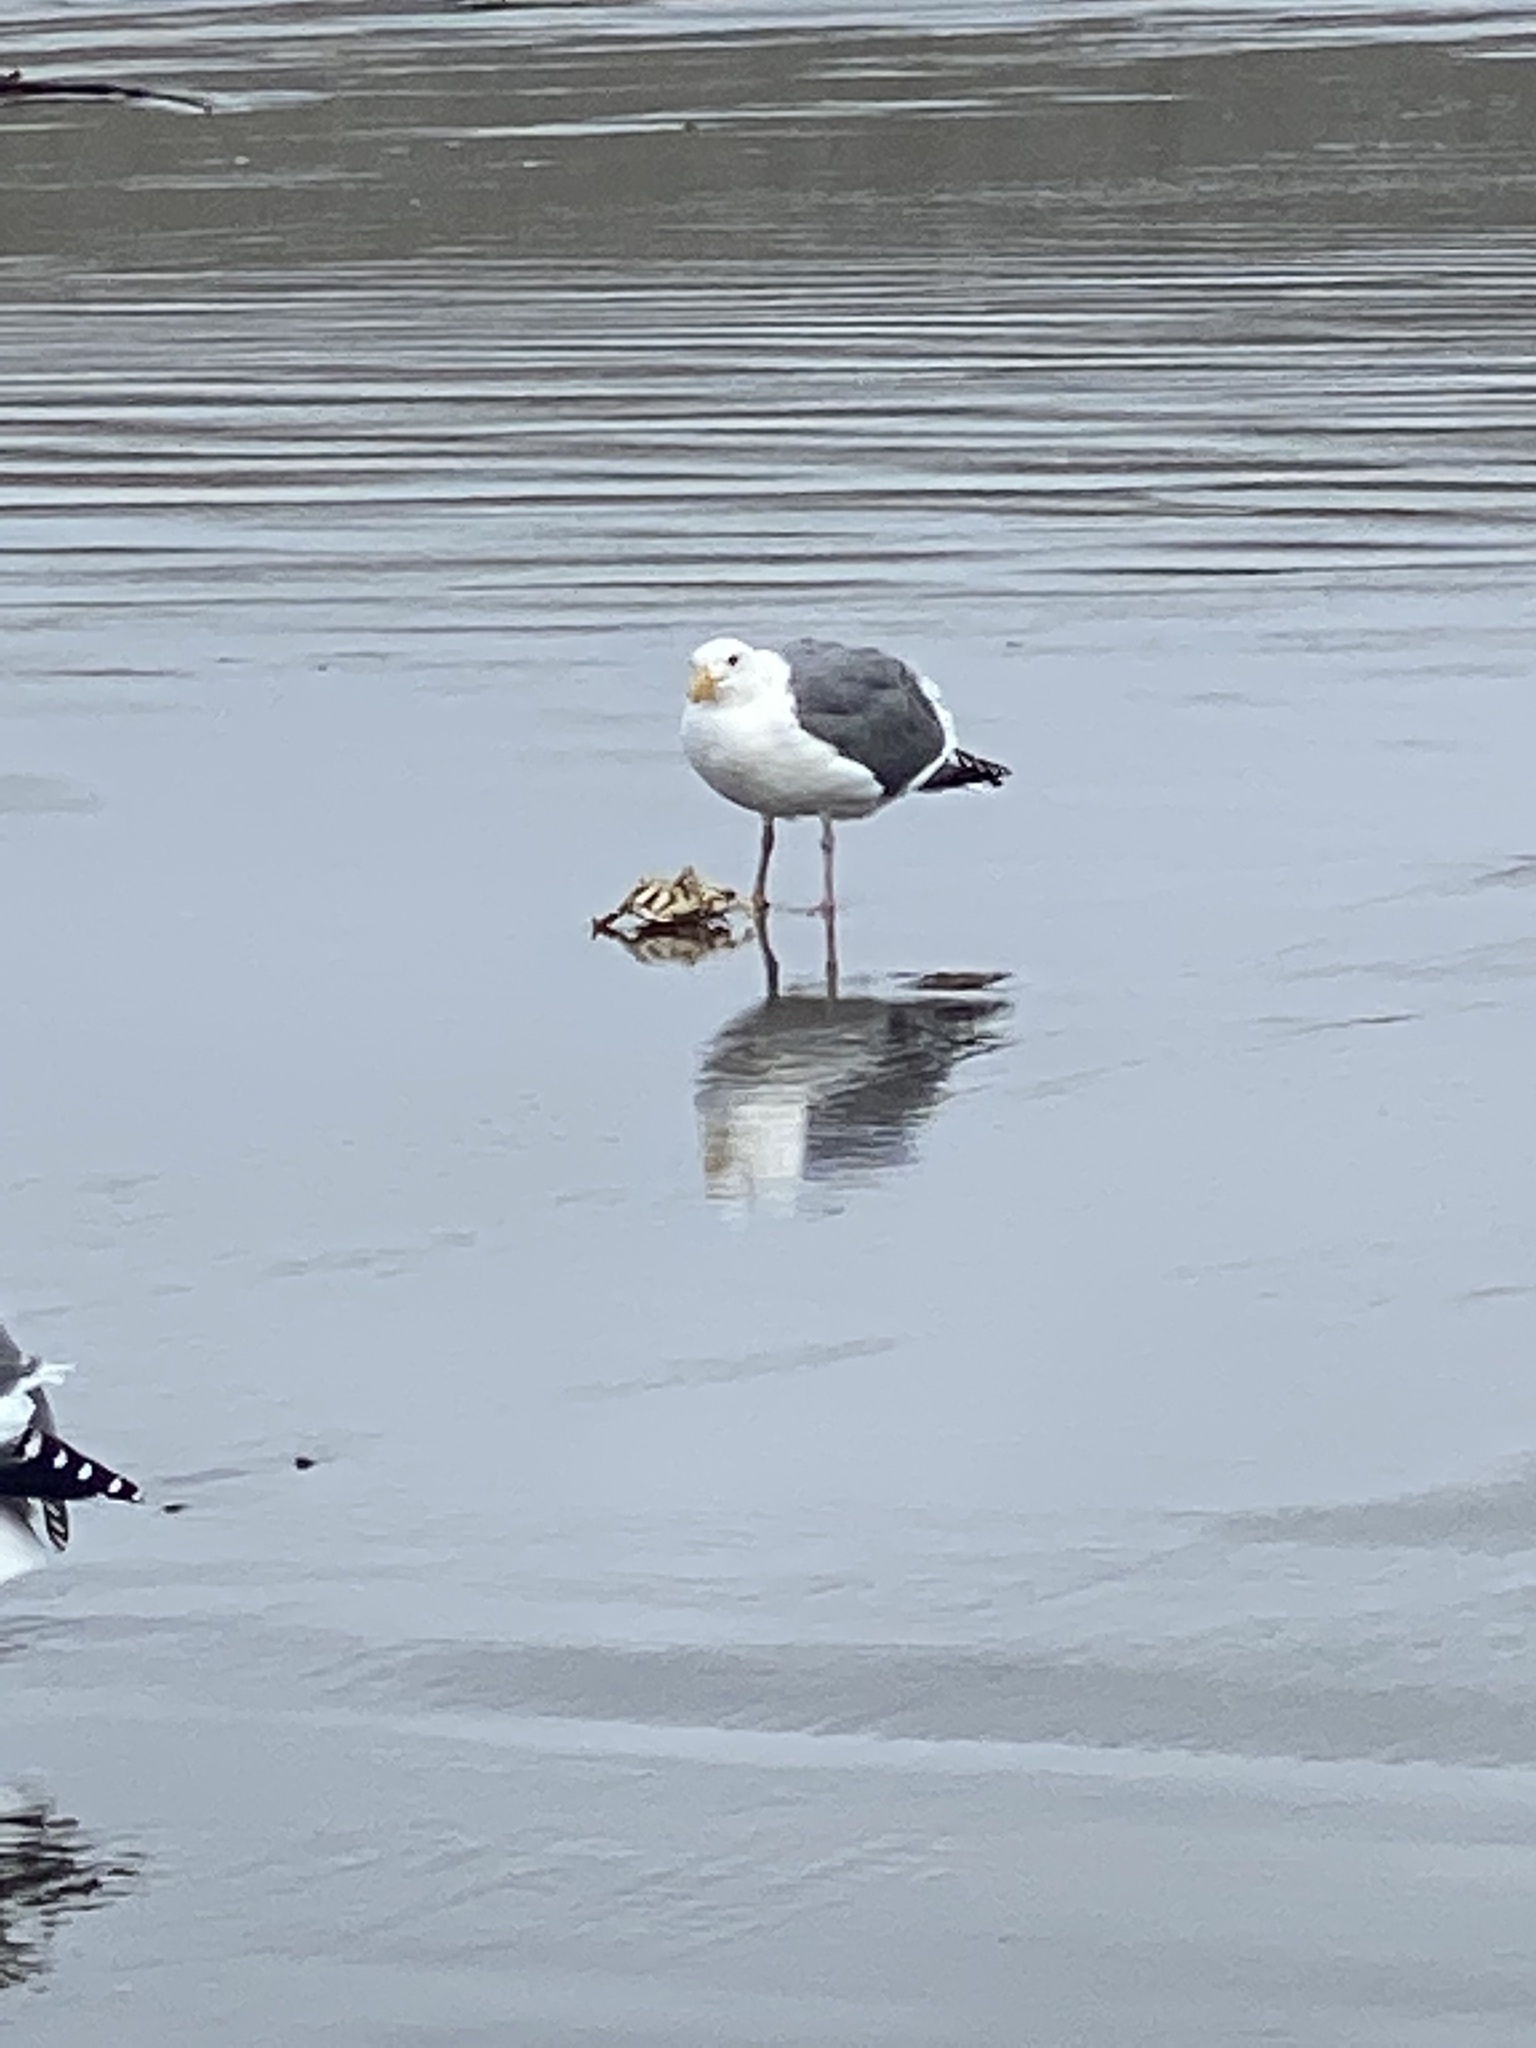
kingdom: Animalia
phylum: Chordata
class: Aves
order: Charadriiformes
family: Laridae
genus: Larus
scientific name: Larus occidentalis
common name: Western gull
